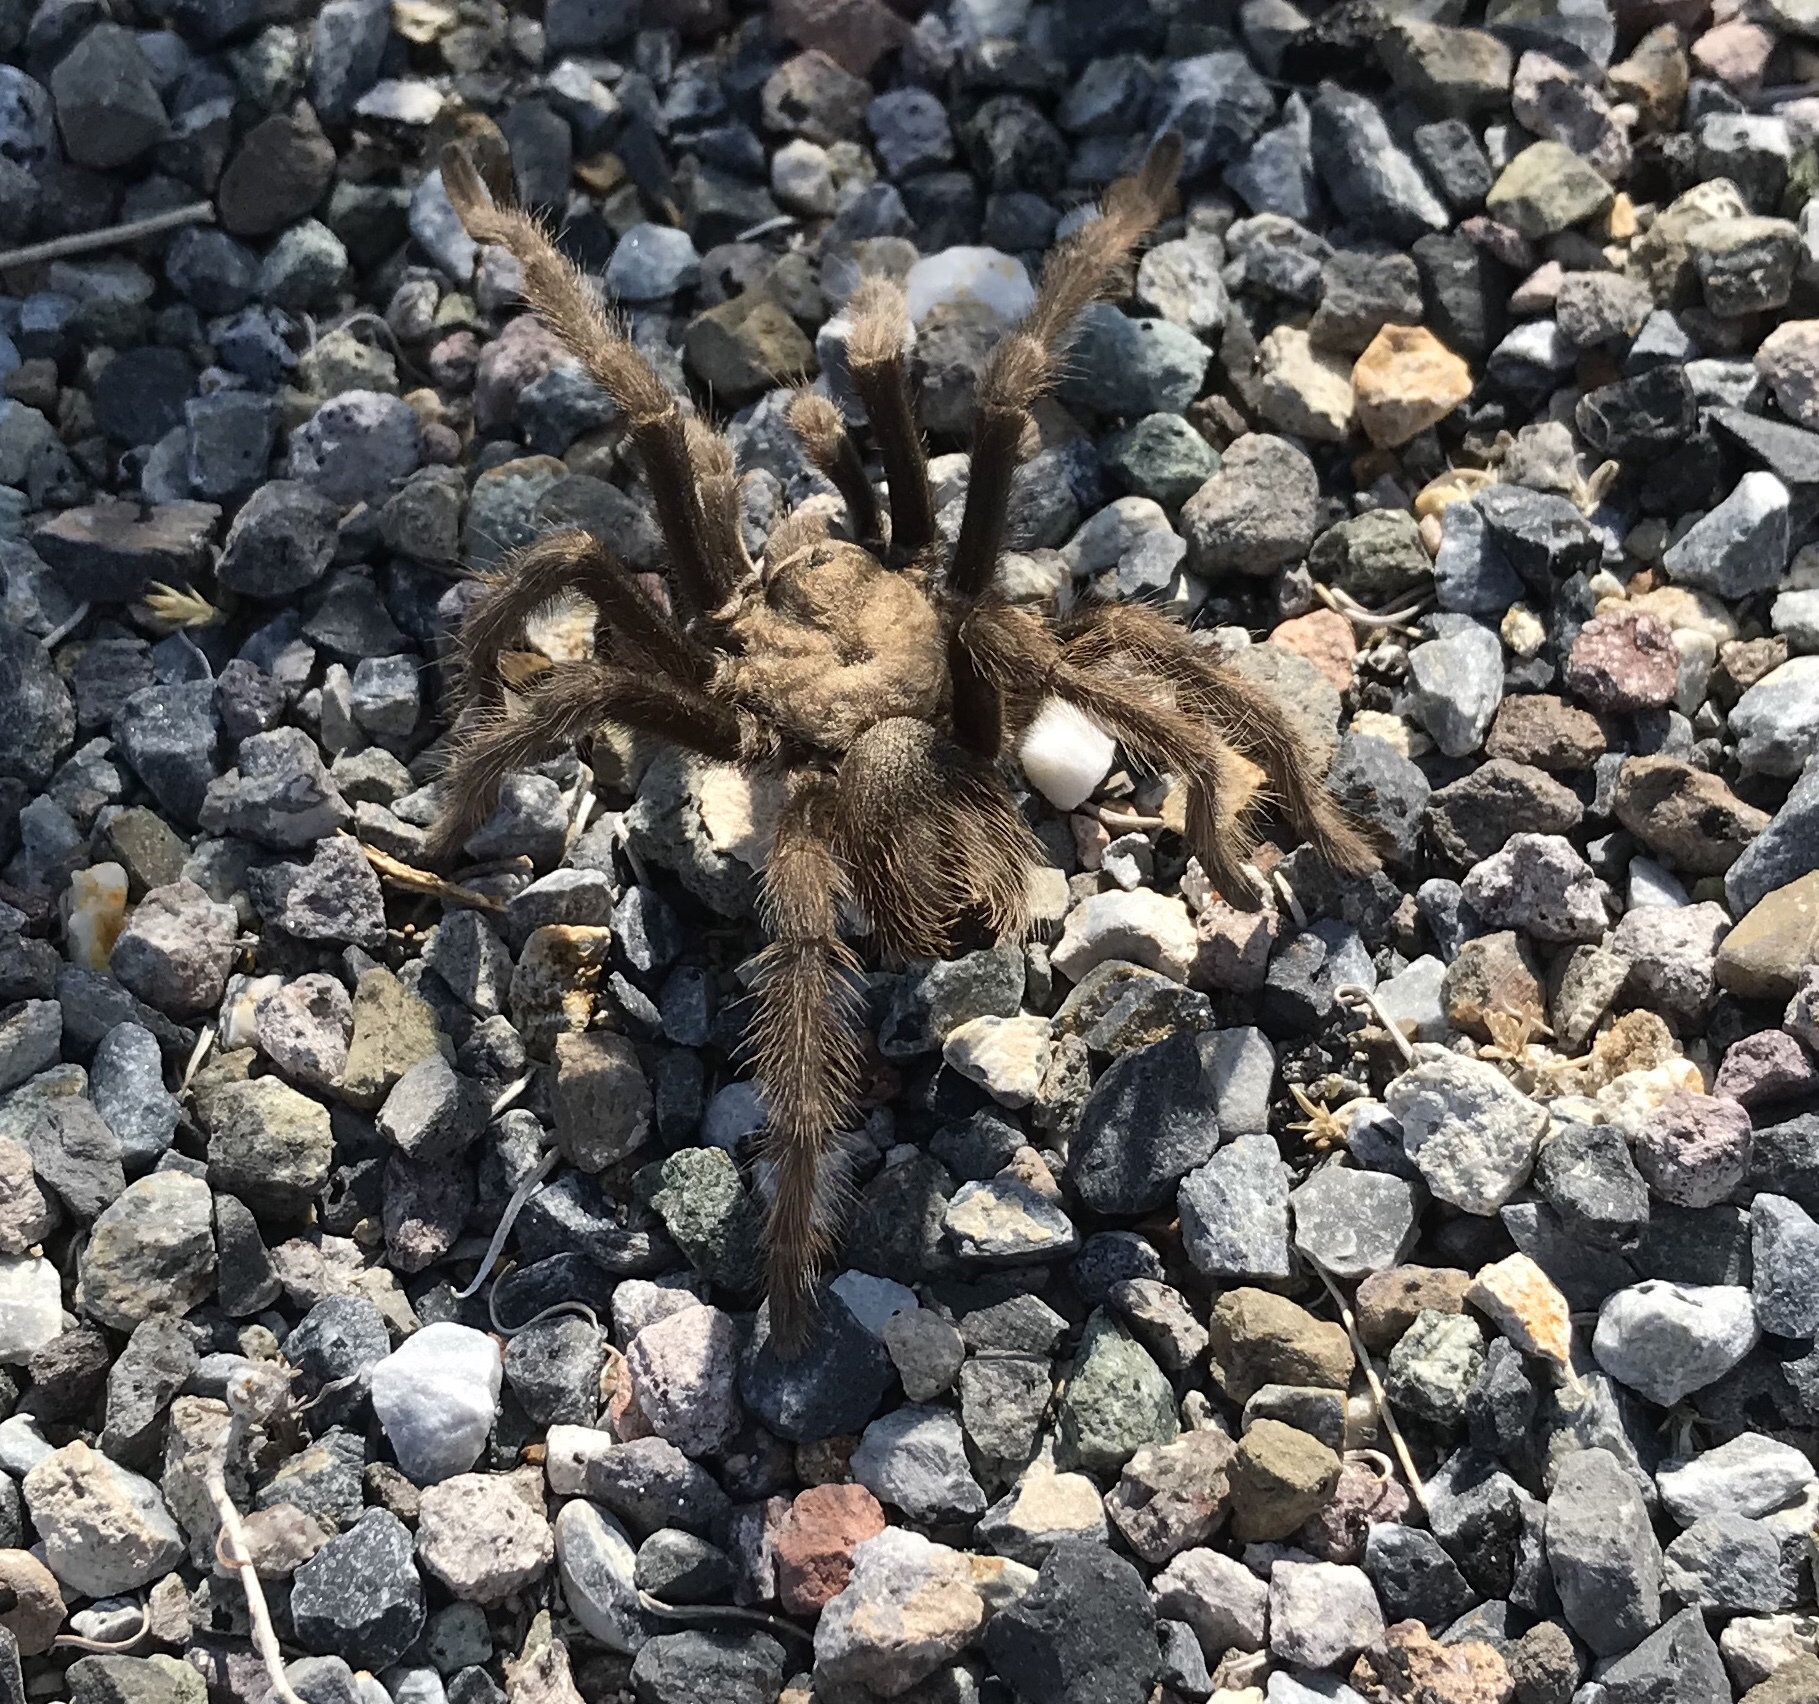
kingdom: Animalia
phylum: Arthropoda
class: Arachnida
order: Araneae
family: Theraphosidae
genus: Aphonopelma
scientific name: Aphonopelma iodius
